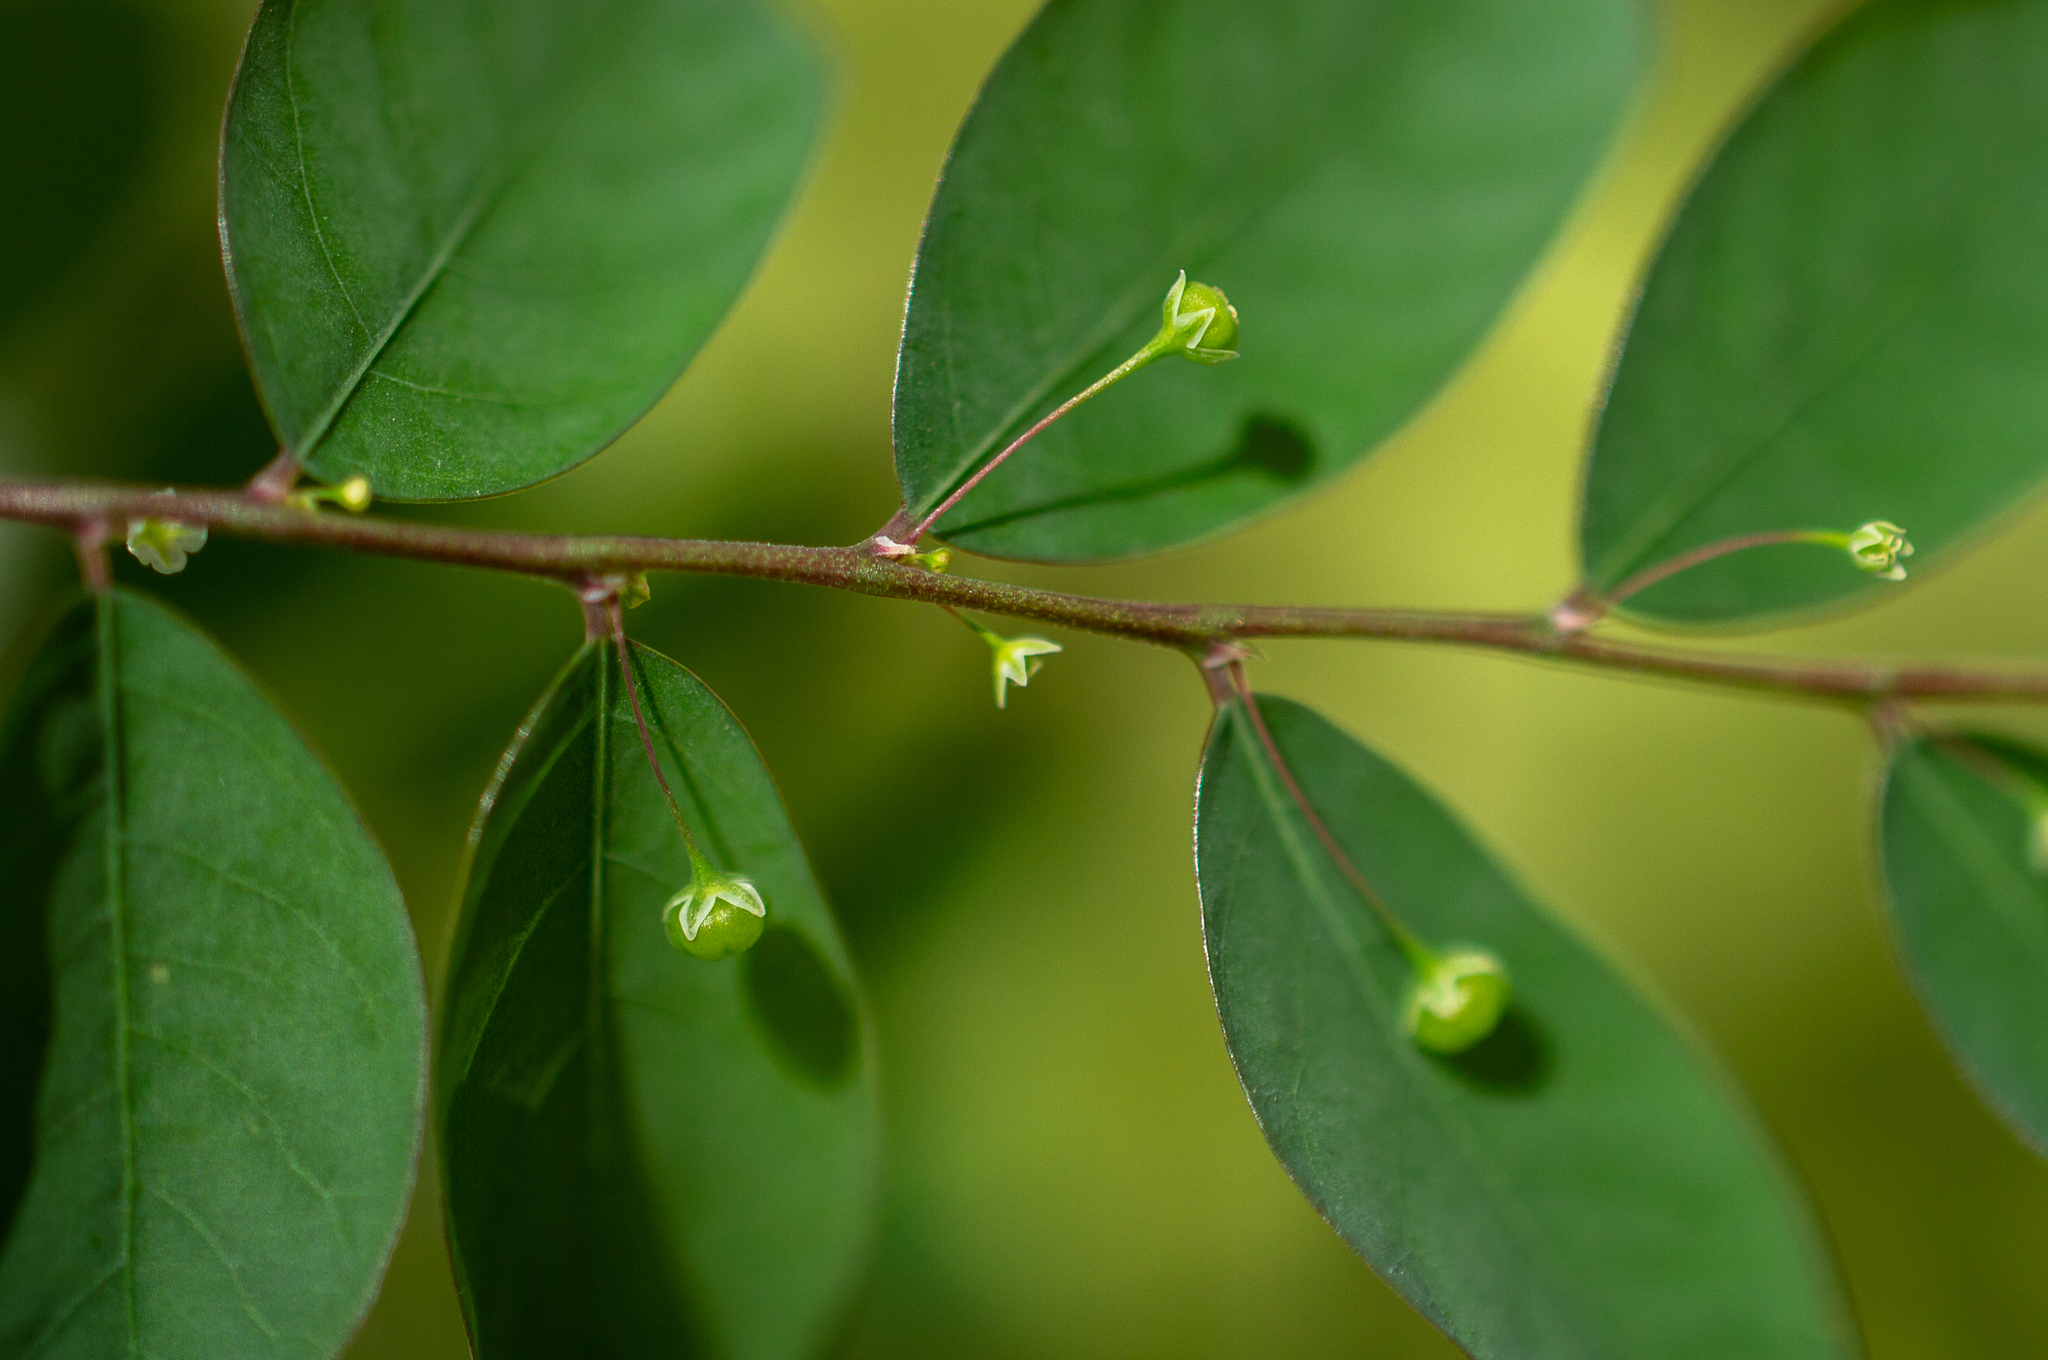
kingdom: Plantae
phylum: Tracheophyta
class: Magnoliopsida
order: Malpighiales
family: Phyllanthaceae
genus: Phyllanthus
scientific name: Phyllanthus tenellus
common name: Mascarene island leaf-flower
